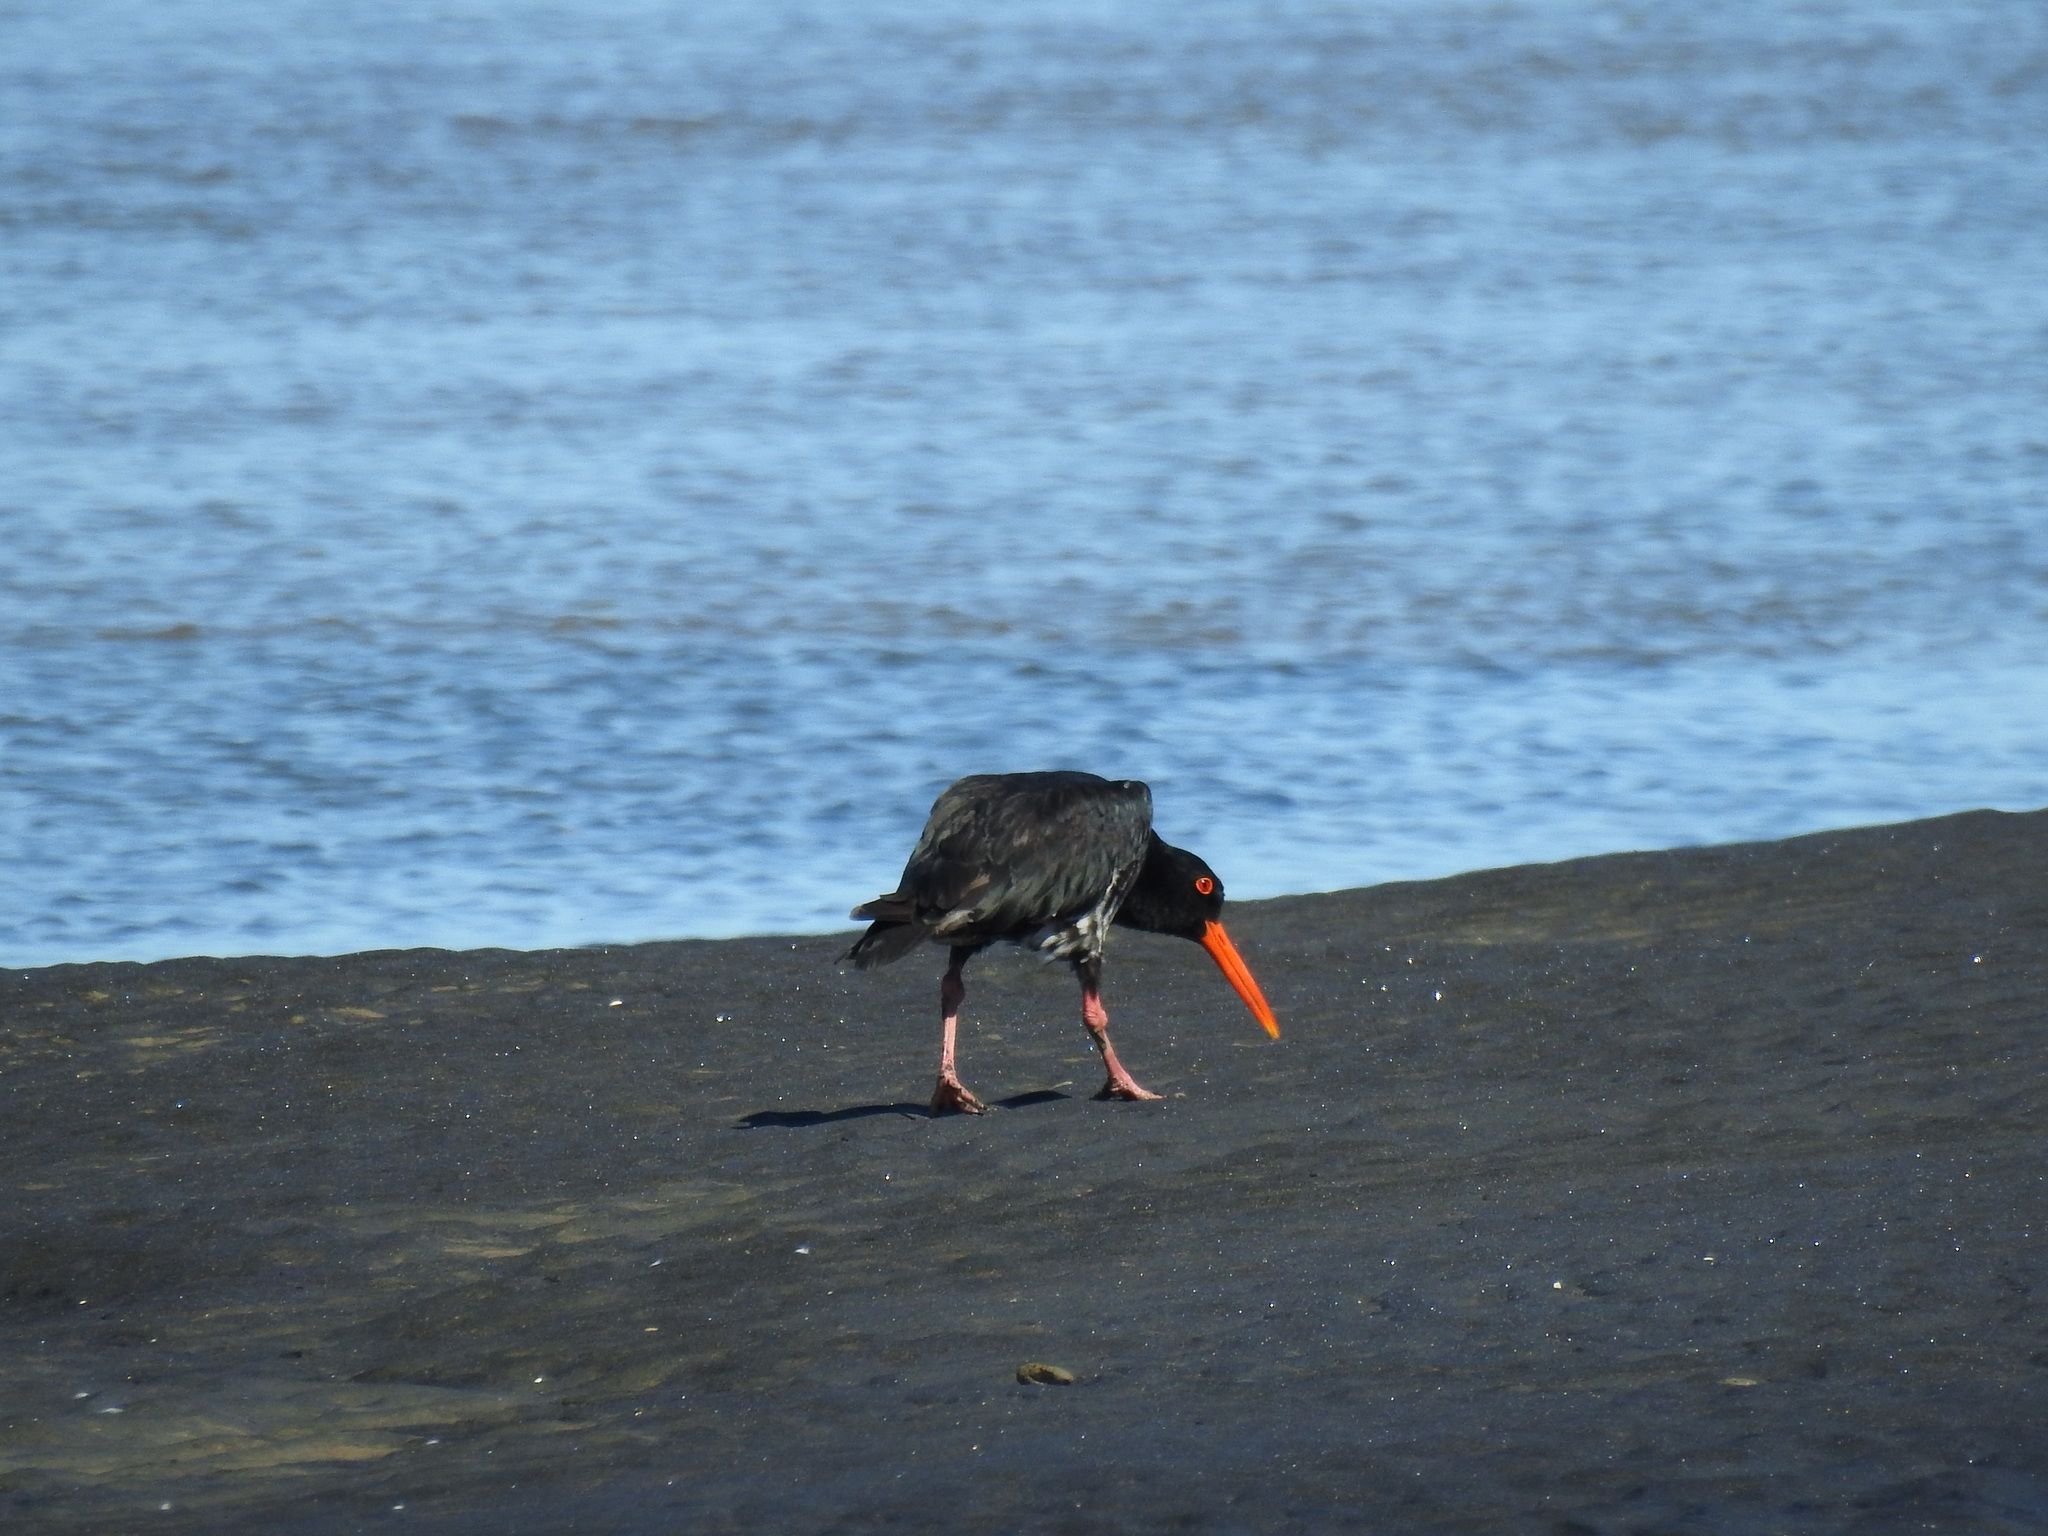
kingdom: Animalia
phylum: Chordata
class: Aves
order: Charadriiformes
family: Haematopodidae
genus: Haematopus
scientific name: Haematopus unicolor
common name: Variable oystercatcher
